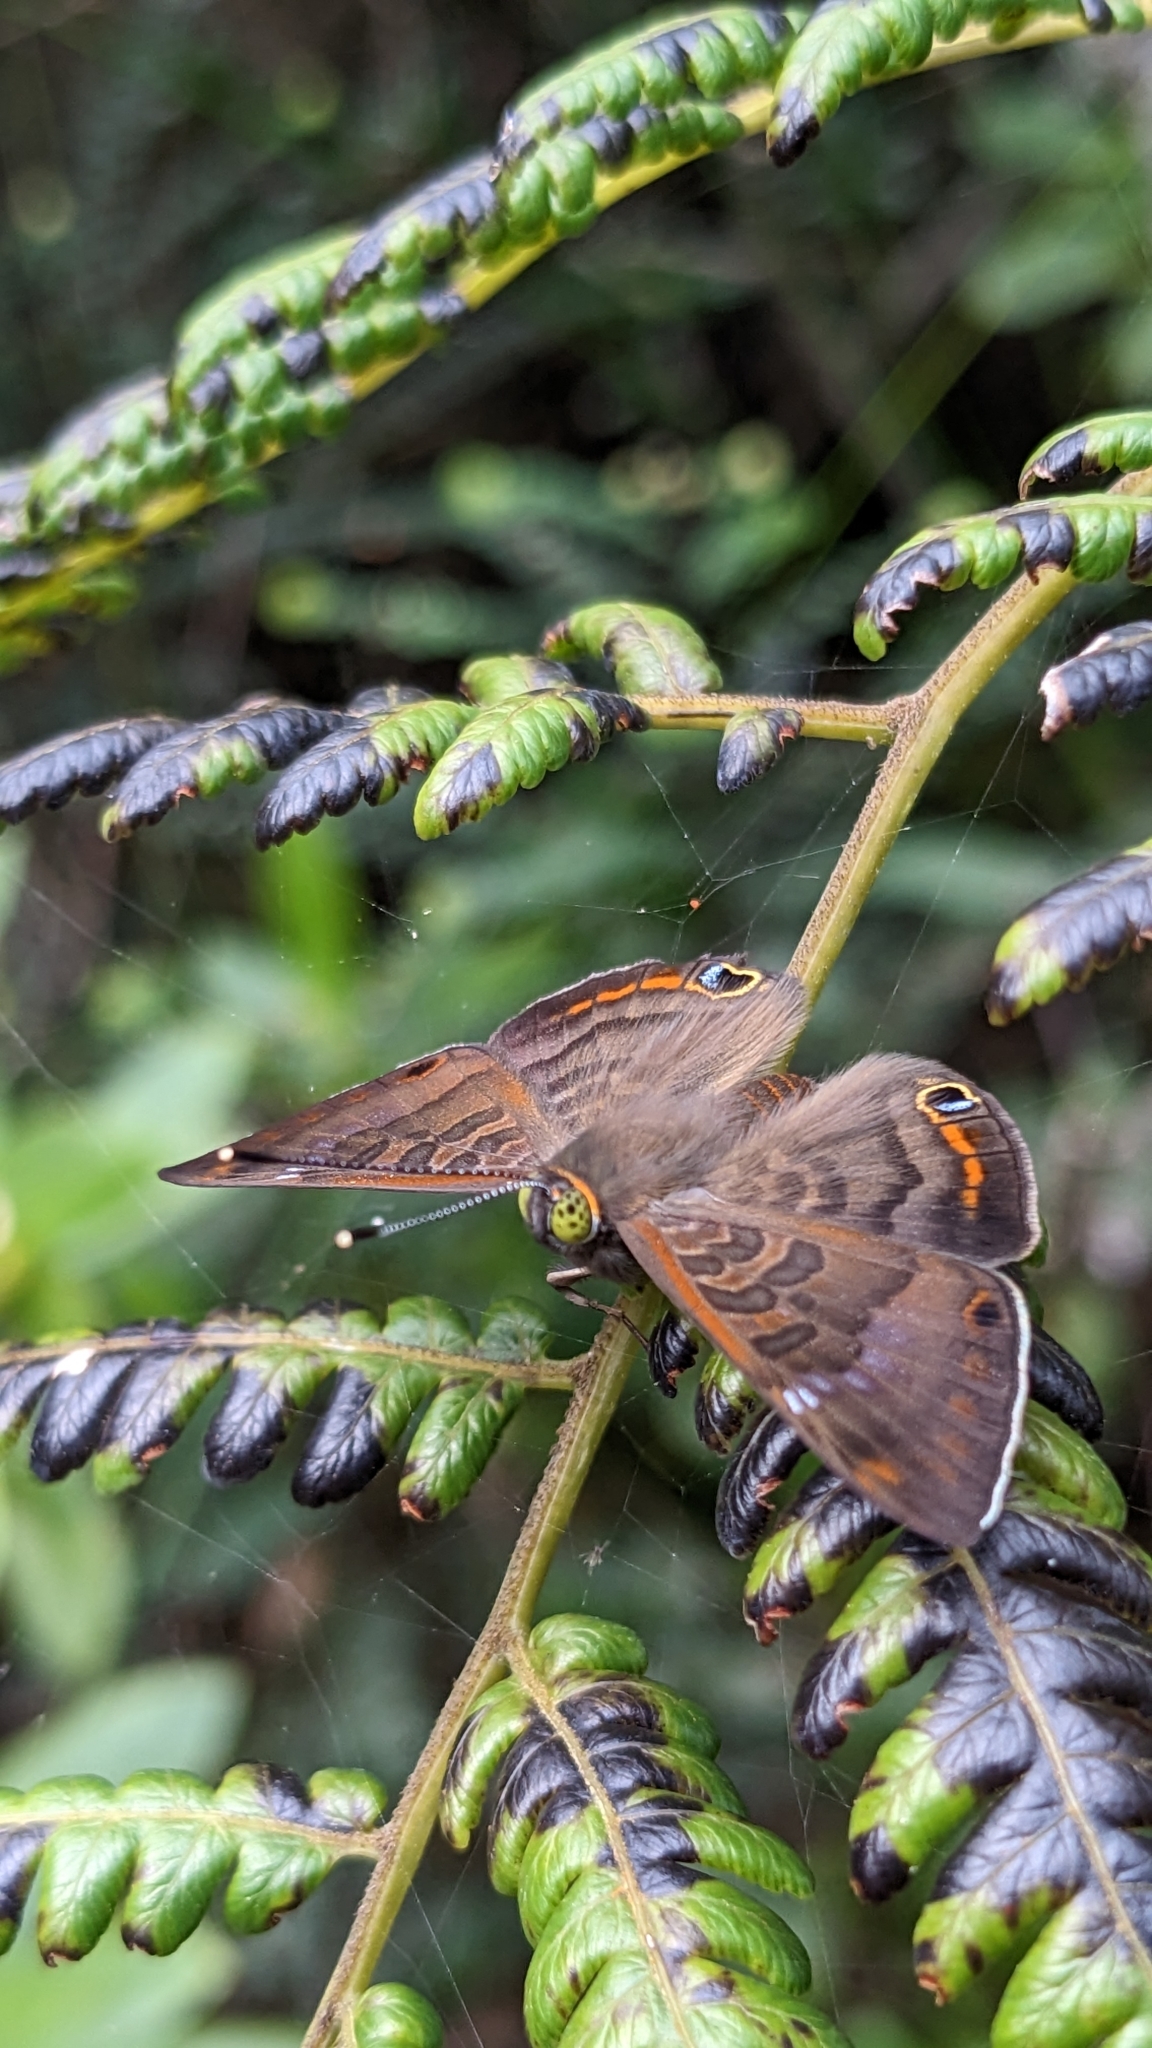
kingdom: Animalia
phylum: Arthropoda
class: Insecta
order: Lepidoptera
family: Riodinidae
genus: Dianesia
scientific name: Dianesia carteri
